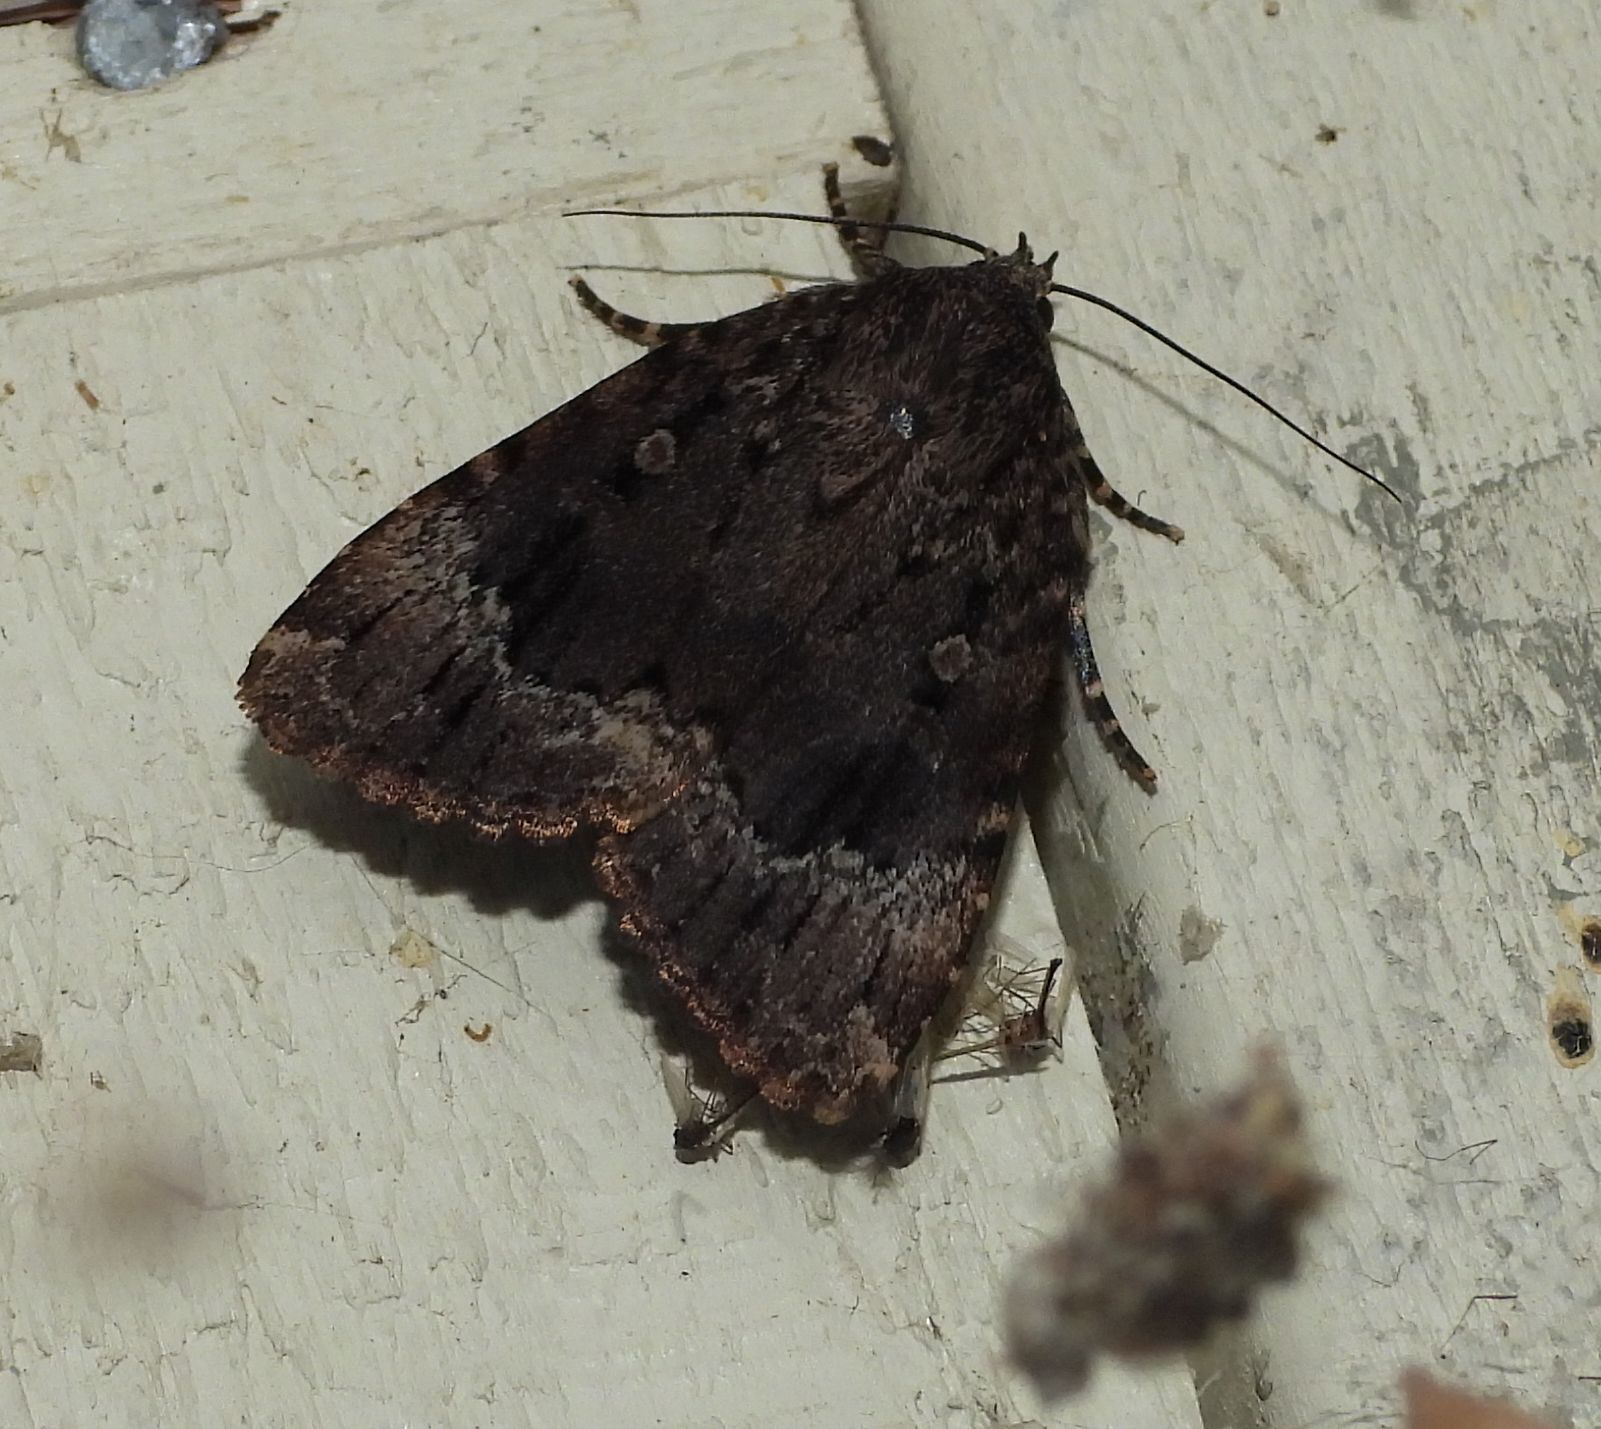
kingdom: Animalia
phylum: Arthropoda
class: Insecta
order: Lepidoptera
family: Noctuidae
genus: Amphipyra
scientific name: Amphipyra pyramidoides
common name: American copper underwing
